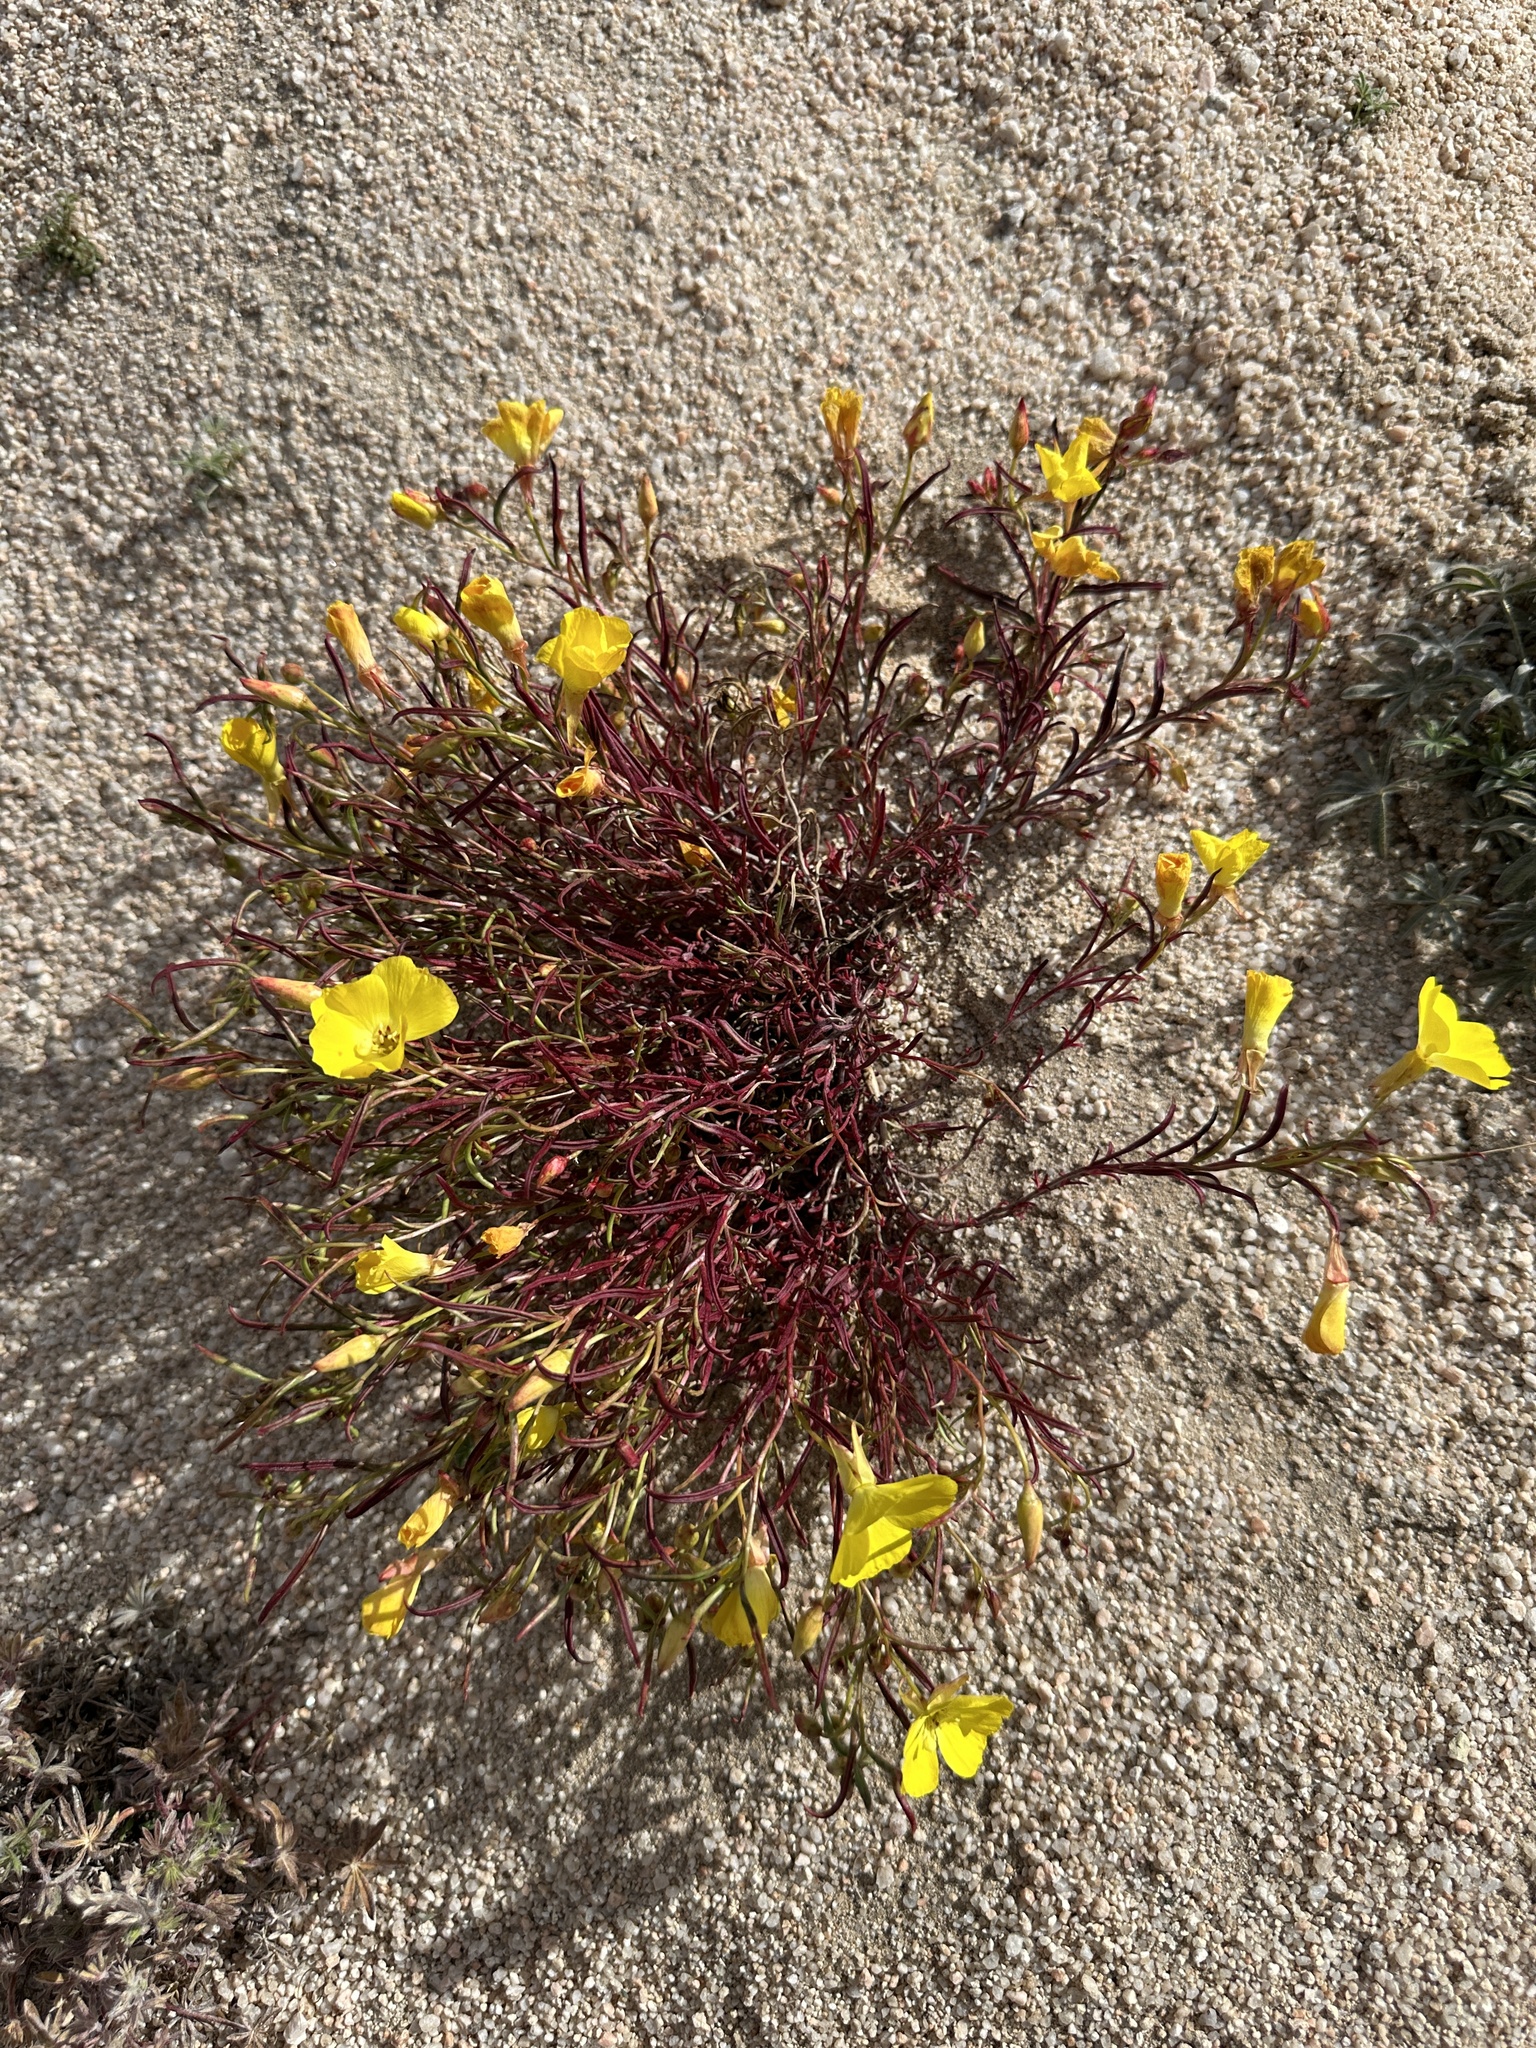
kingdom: Plantae
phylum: Tracheophyta
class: Magnoliopsida
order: Myrtales
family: Onagraceae
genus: Camissonia
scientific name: Camissonia campestris
